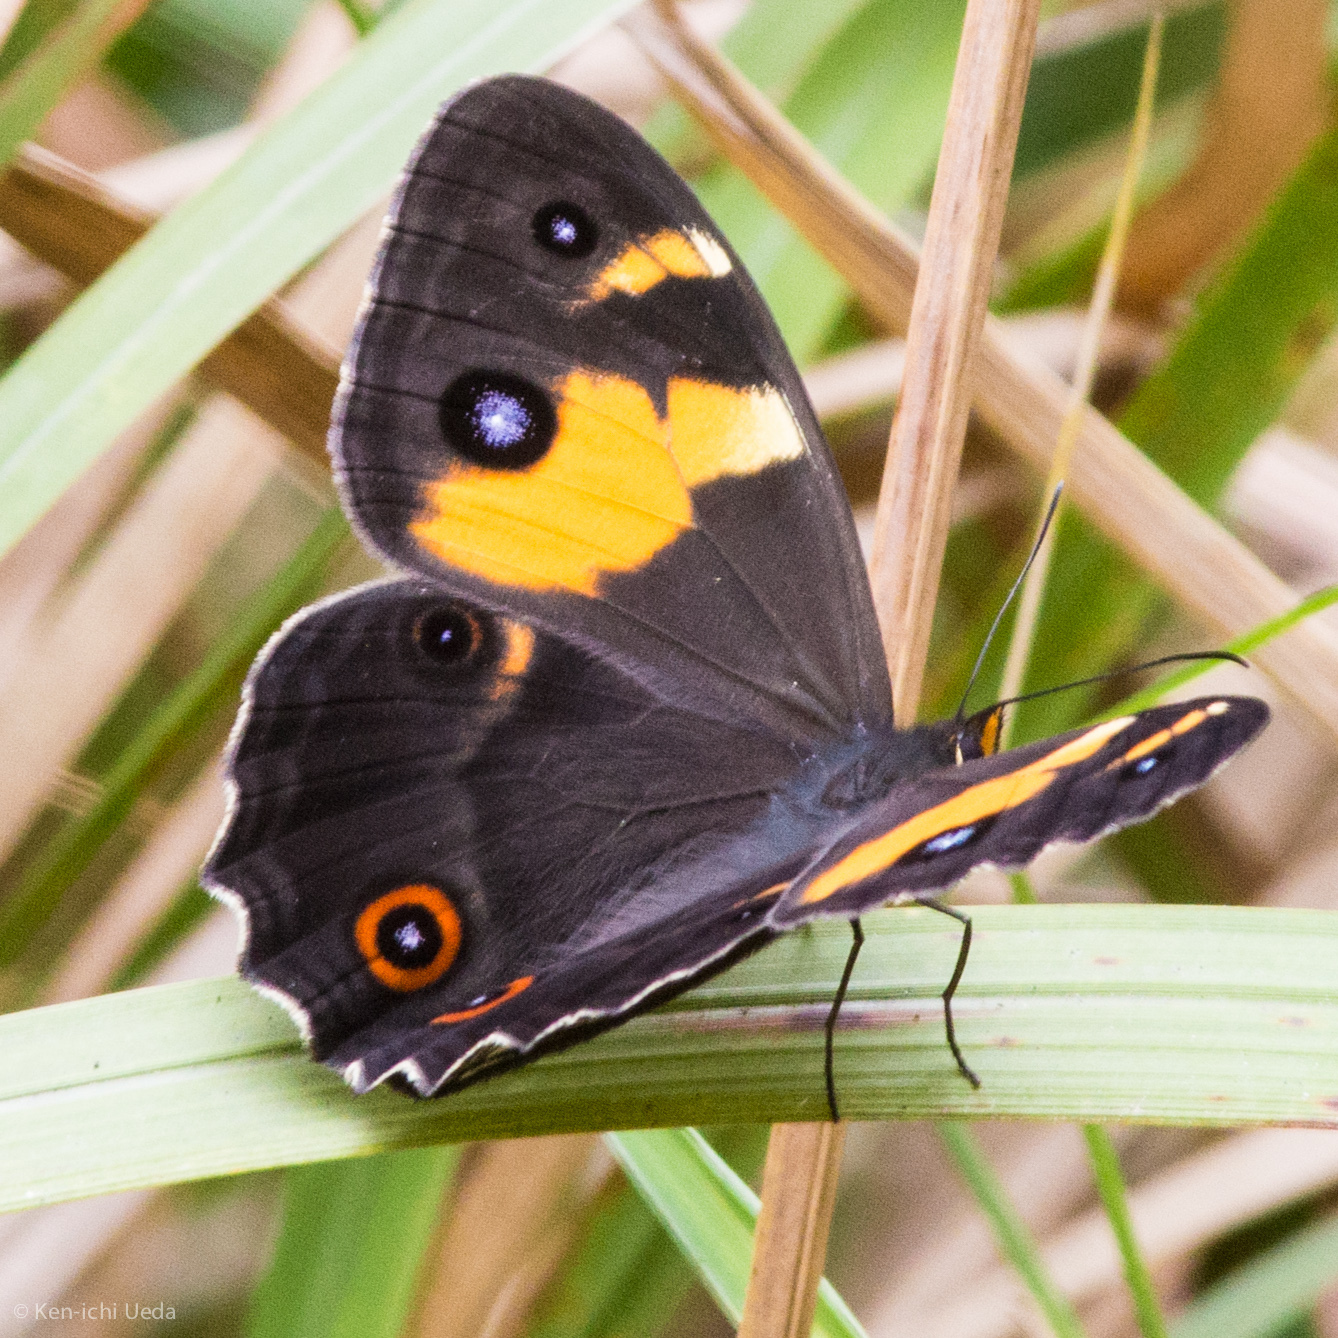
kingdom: Animalia
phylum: Arthropoda
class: Insecta
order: Lepidoptera
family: Nymphalidae
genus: Tisiphone
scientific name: Tisiphone abeona
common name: Swordgrass brown
